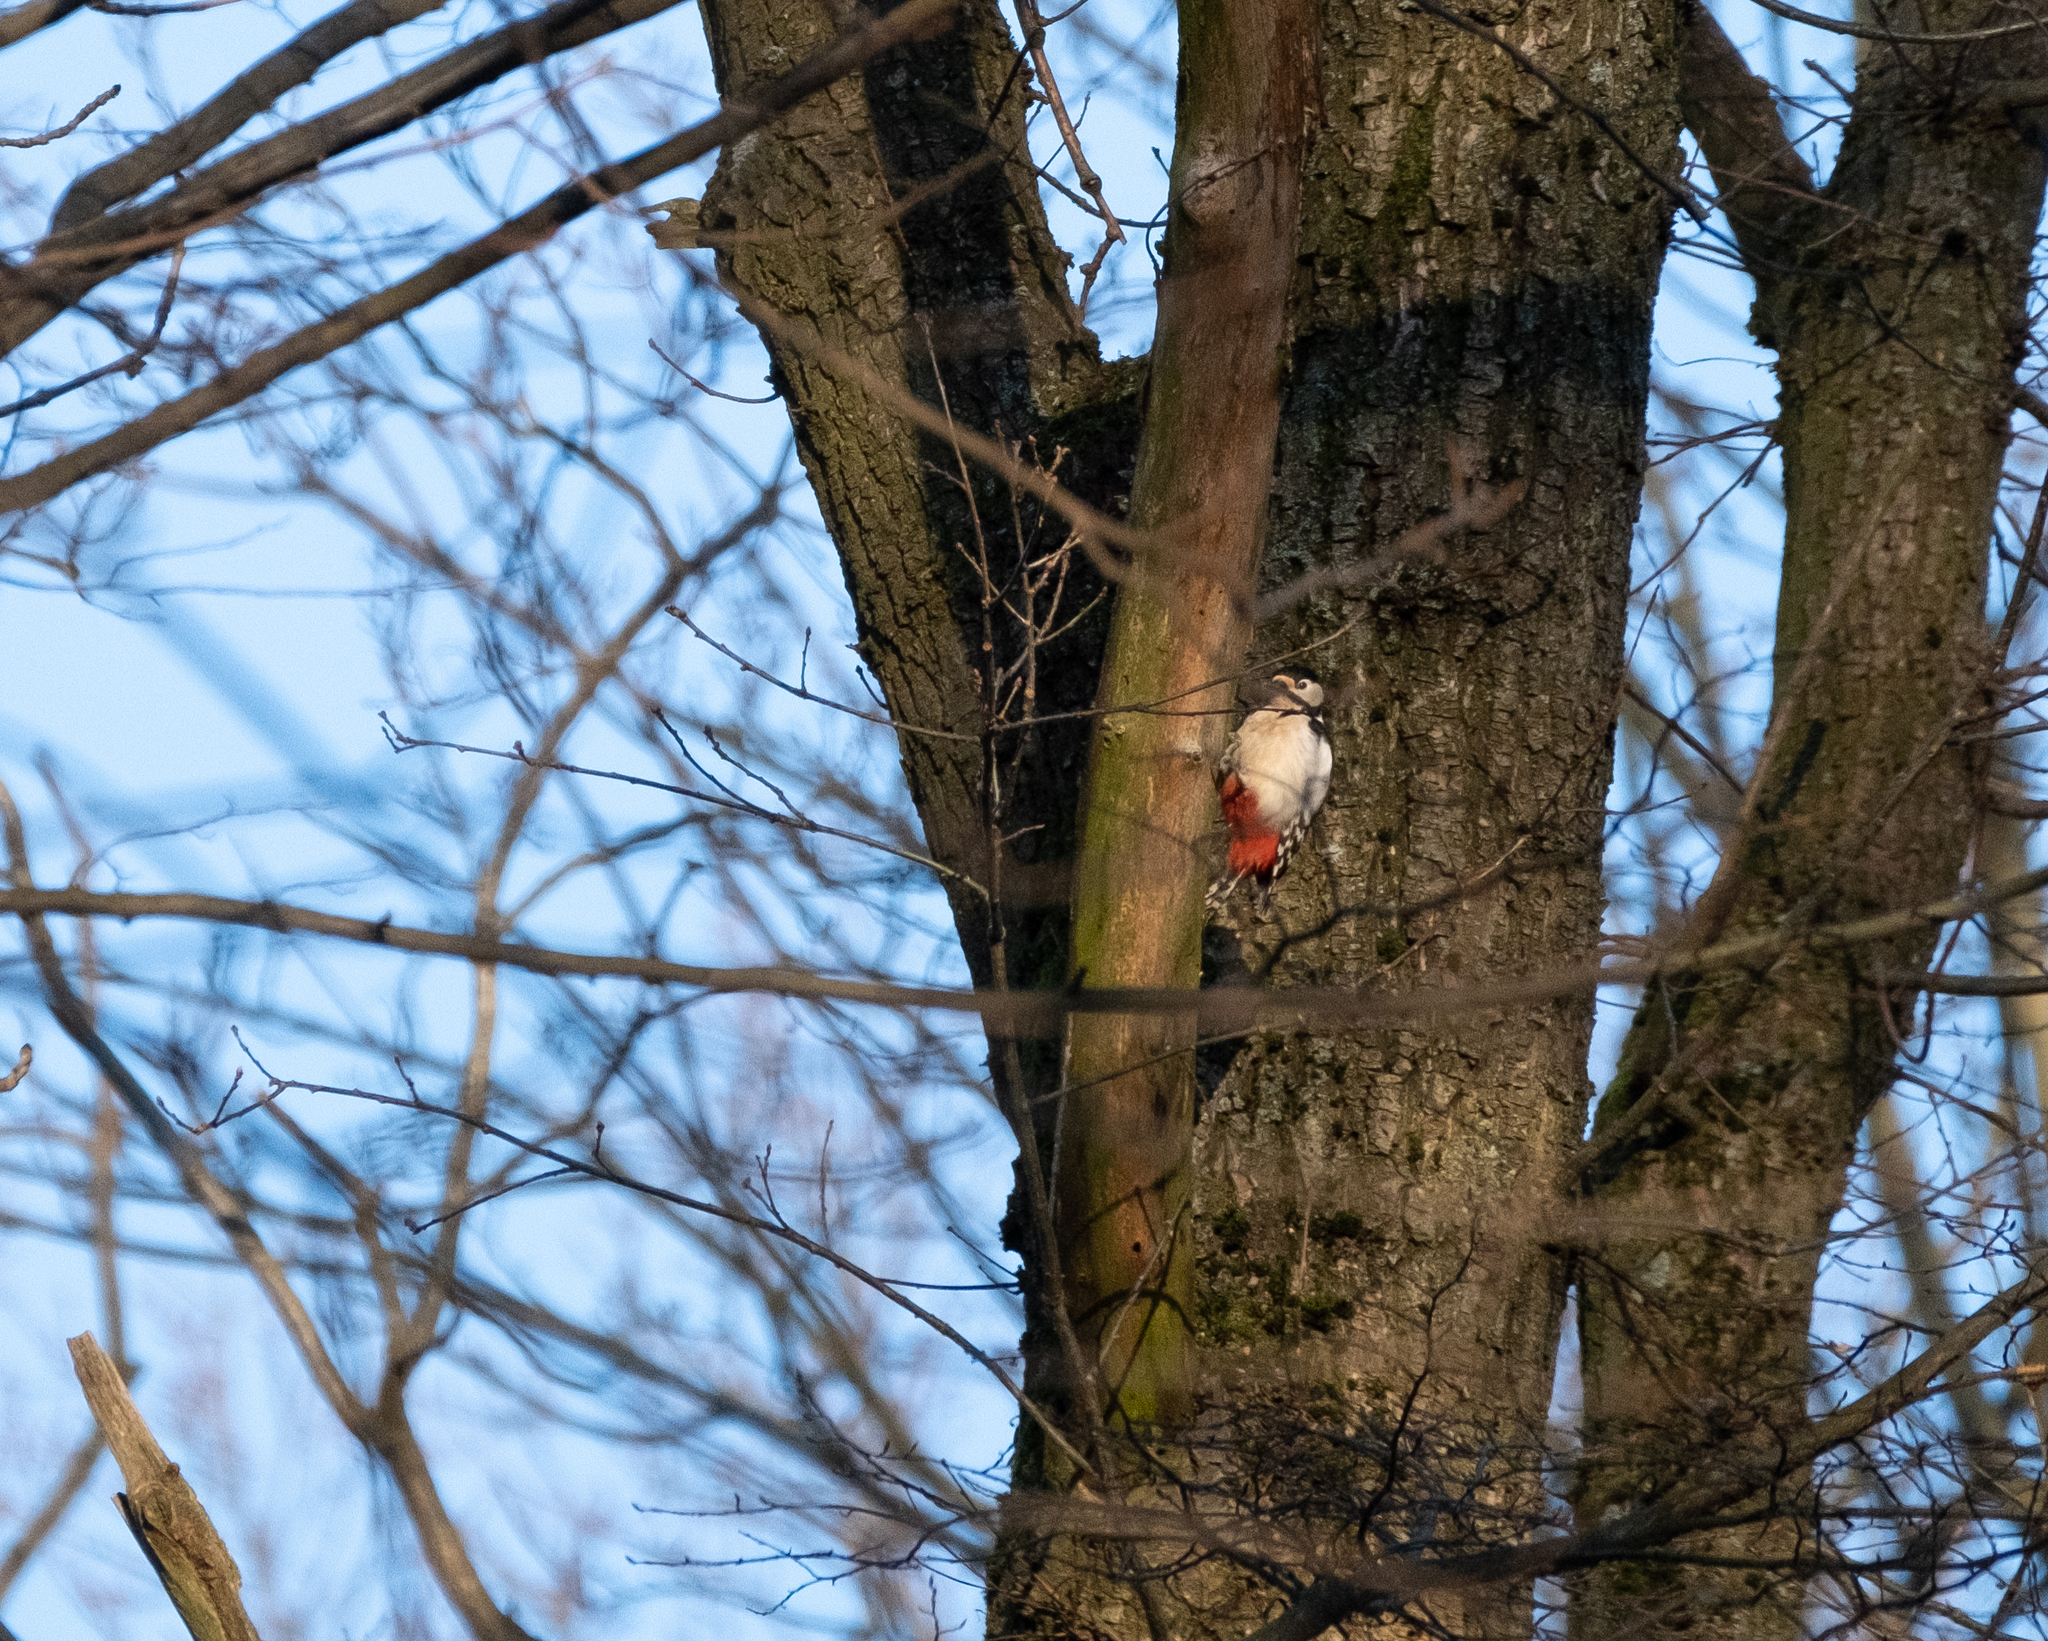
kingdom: Animalia
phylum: Chordata
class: Aves
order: Piciformes
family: Picidae
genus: Dendrocopos
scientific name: Dendrocopos major
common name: Great spotted woodpecker
